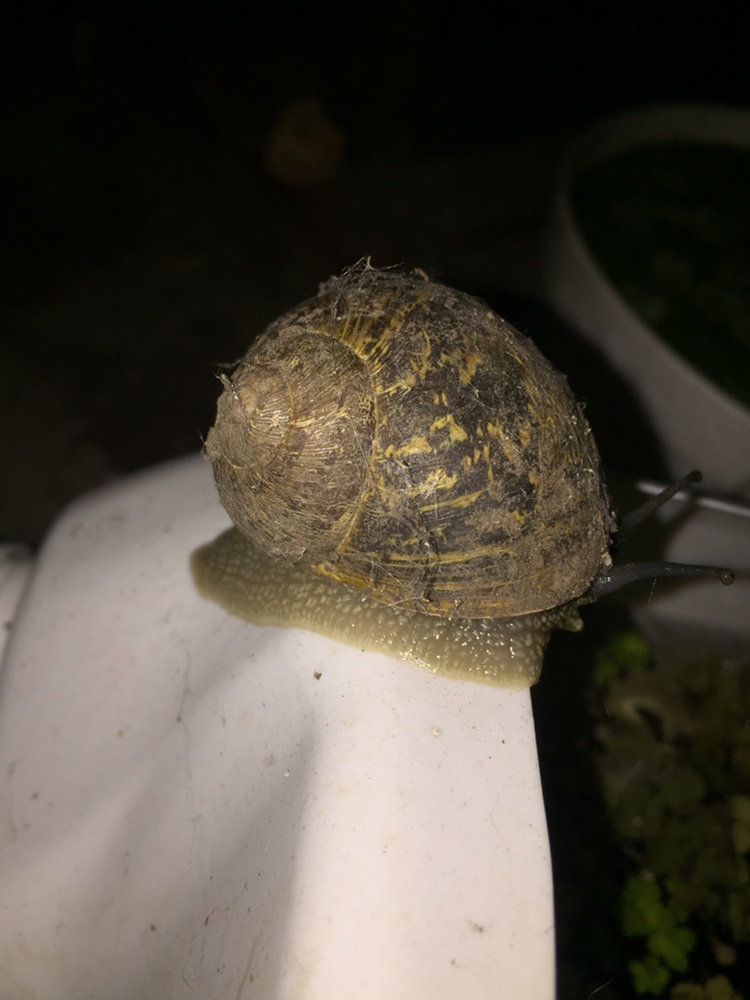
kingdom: Animalia
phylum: Mollusca
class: Gastropoda
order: Stylommatophora
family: Helicidae
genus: Cornu
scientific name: Cornu aspersum
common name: Brown garden snail
